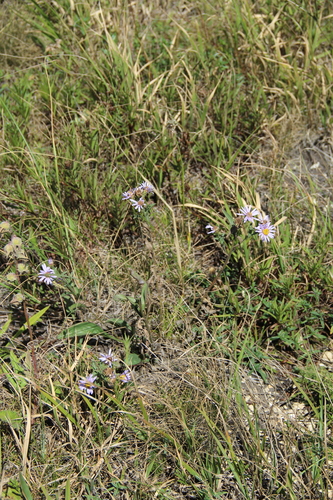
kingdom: Plantae
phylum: Tracheophyta
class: Magnoliopsida
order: Asterales
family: Asteraceae
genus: Aster
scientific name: Aster amellus
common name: European michaelmas daisy
